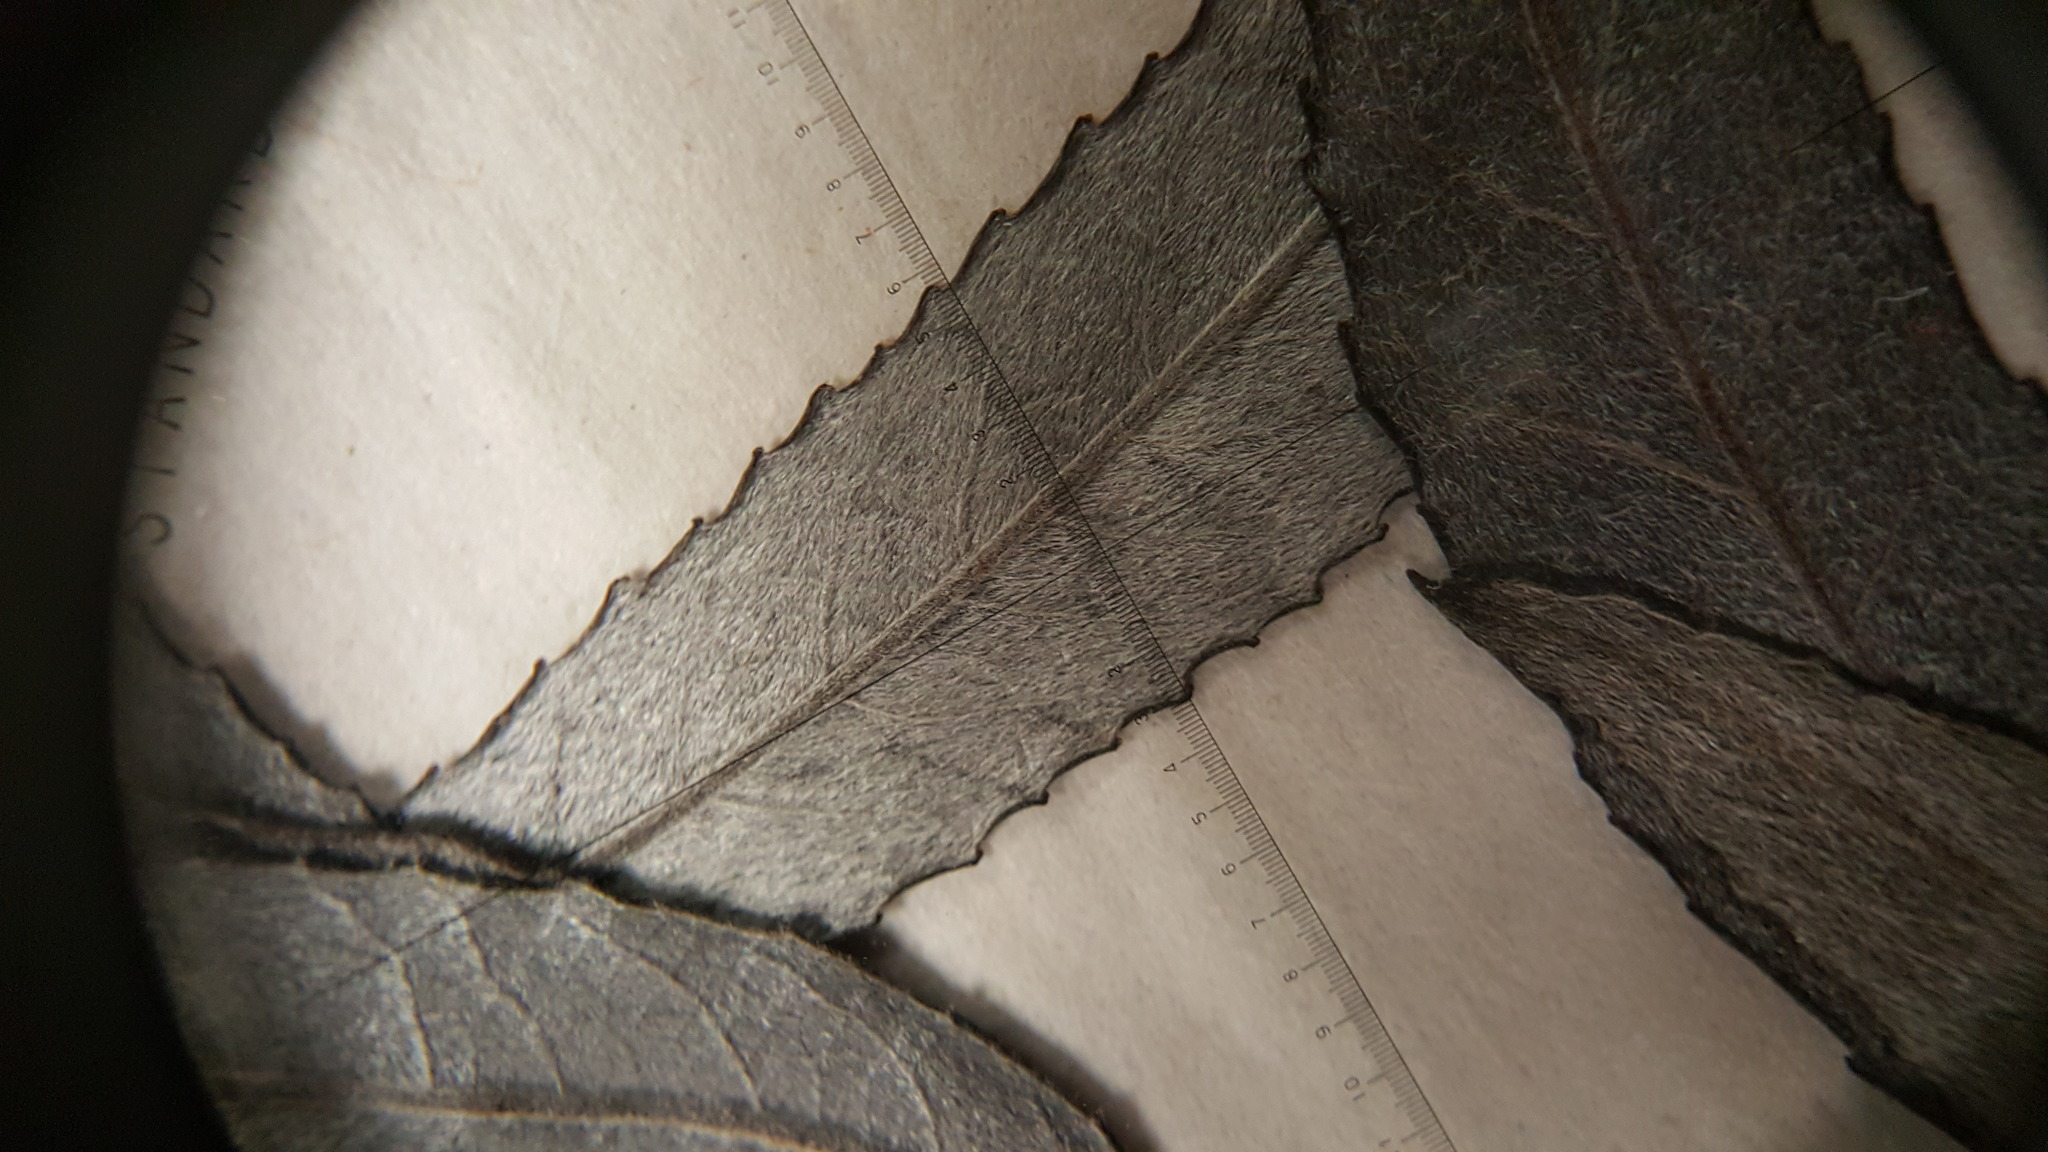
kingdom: Plantae
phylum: Tracheophyta
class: Magnoliopsida
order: Malpighiales
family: Salicaceae
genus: Salix
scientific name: Salix petiolaris
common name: Slender willow
